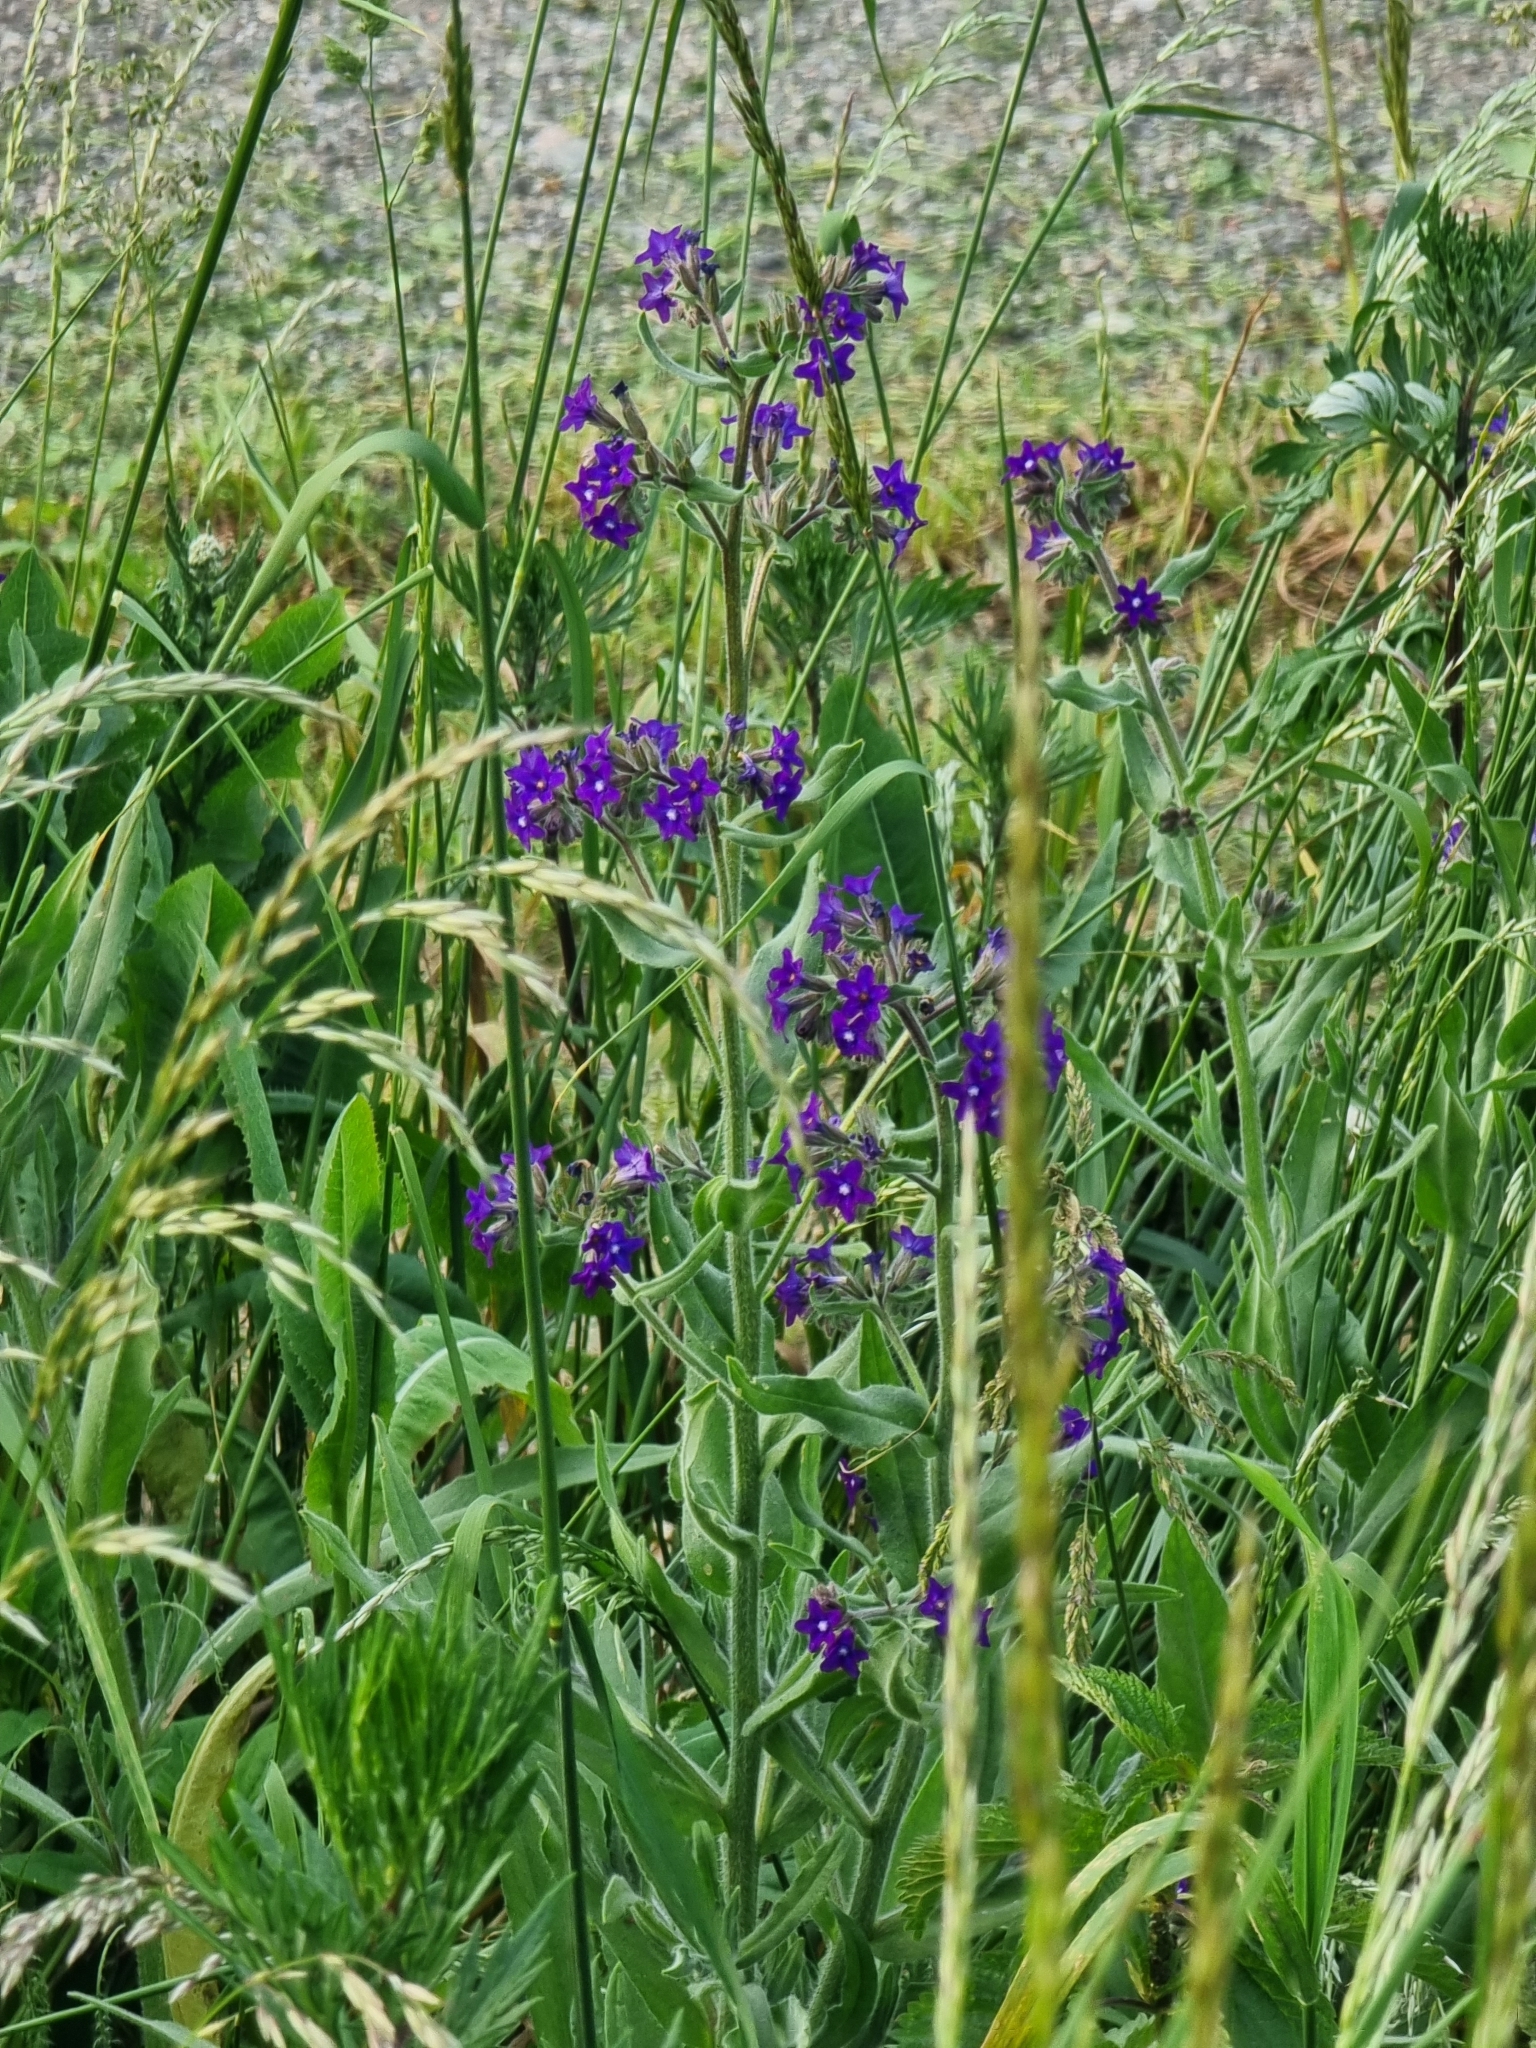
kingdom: Plantae
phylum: Tracheophyta
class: Magnoliopsida
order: Boraginales
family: Boraginaceae
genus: Anchusa
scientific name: Anchusa officinalis
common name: Alkanet
